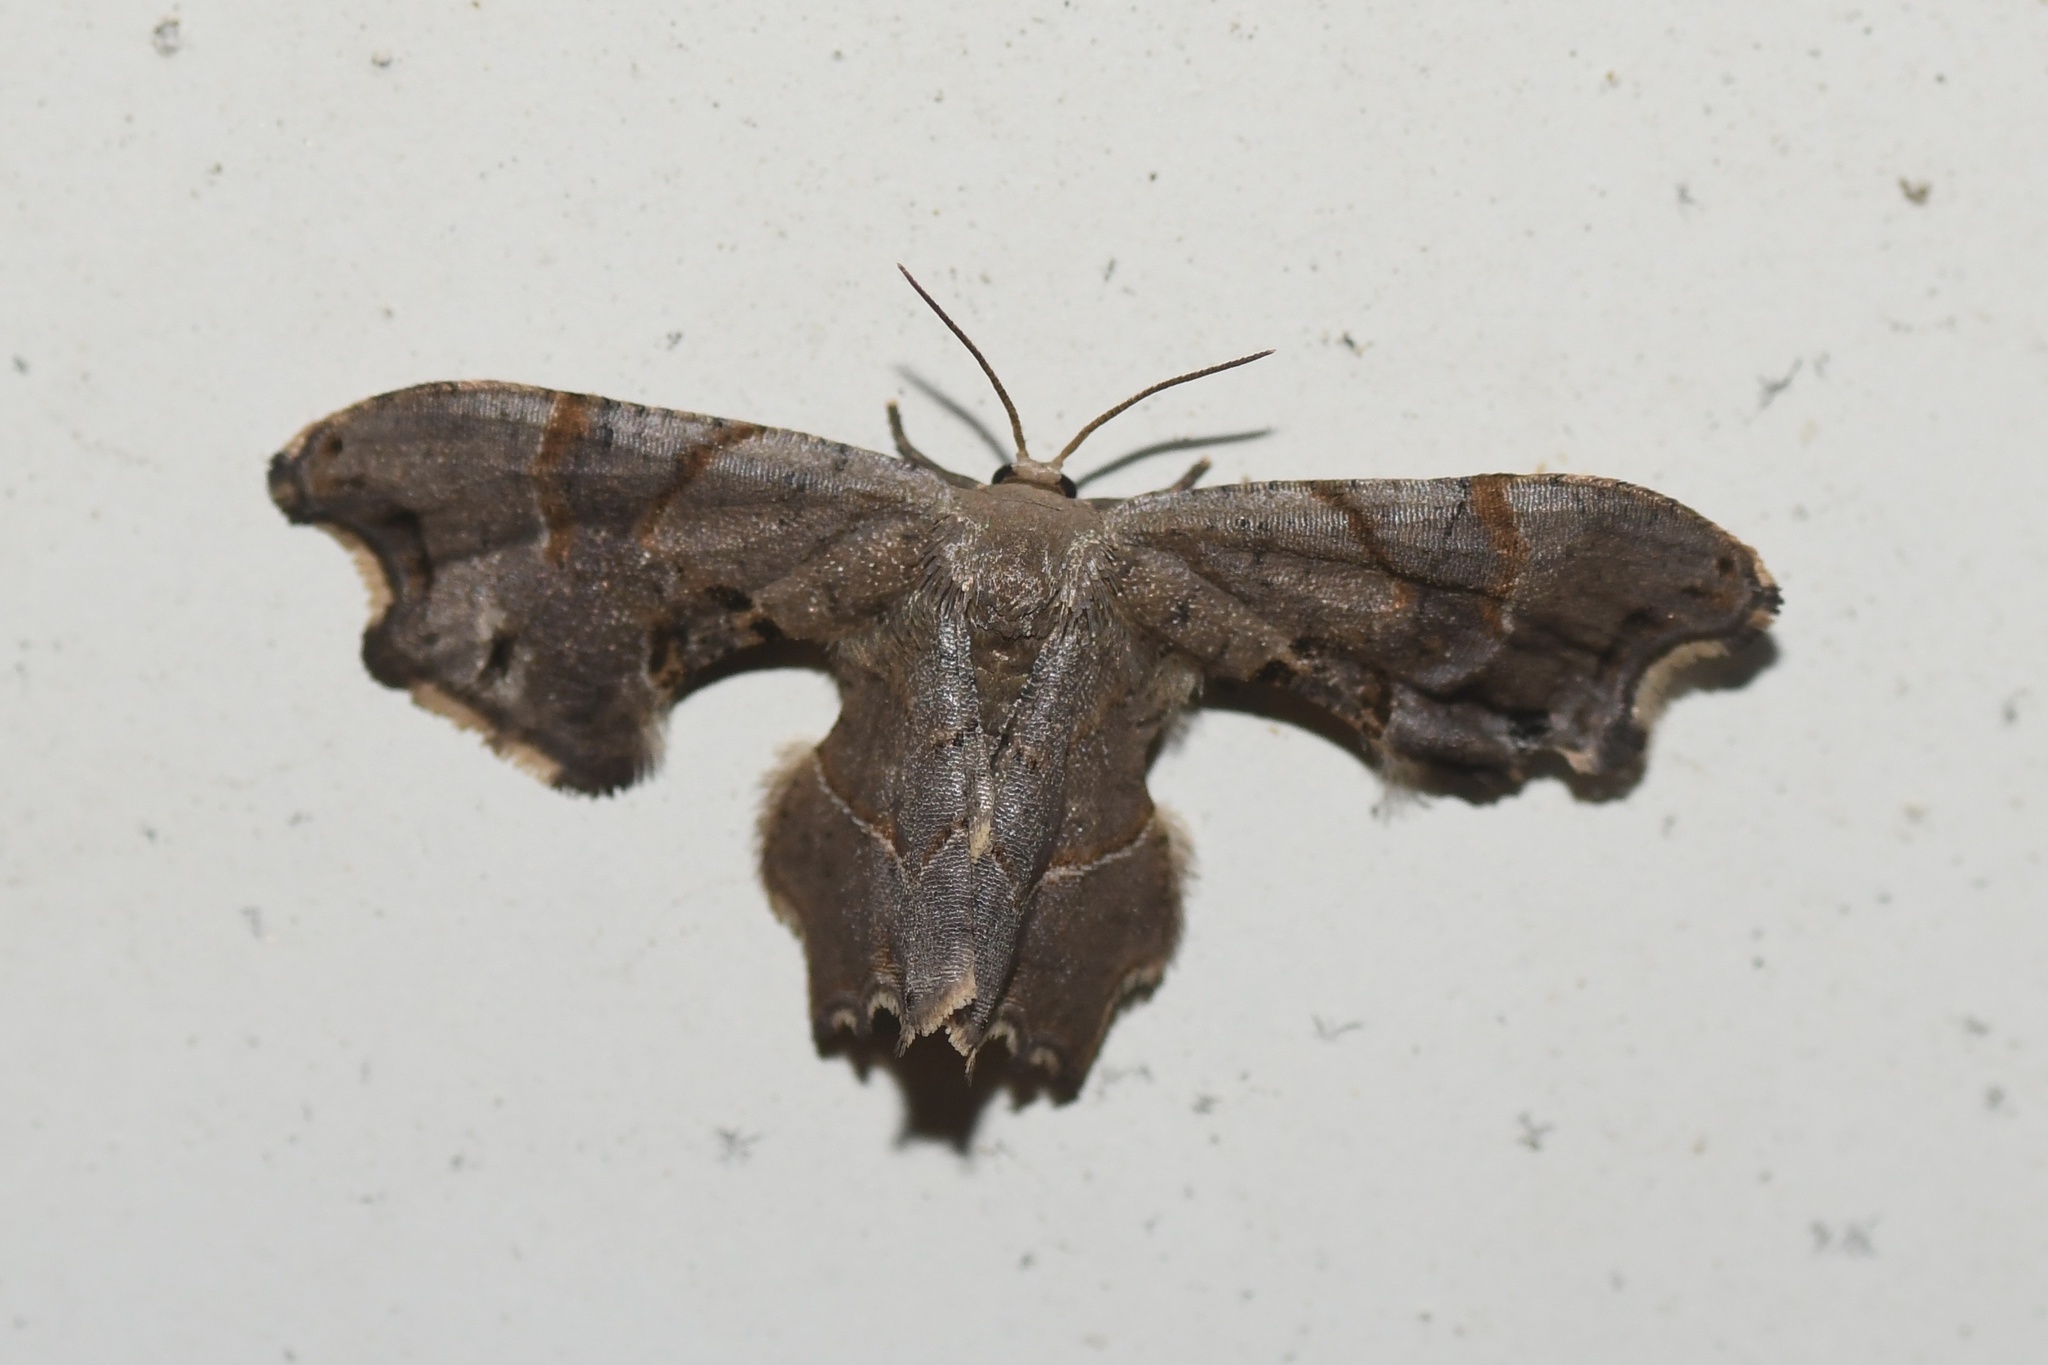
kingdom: Animalia
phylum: Arthropoda
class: Insecta
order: Lepidoptera
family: Uraniidae
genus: Epiplema
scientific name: Epiplema Calledapteryx dryopterata
